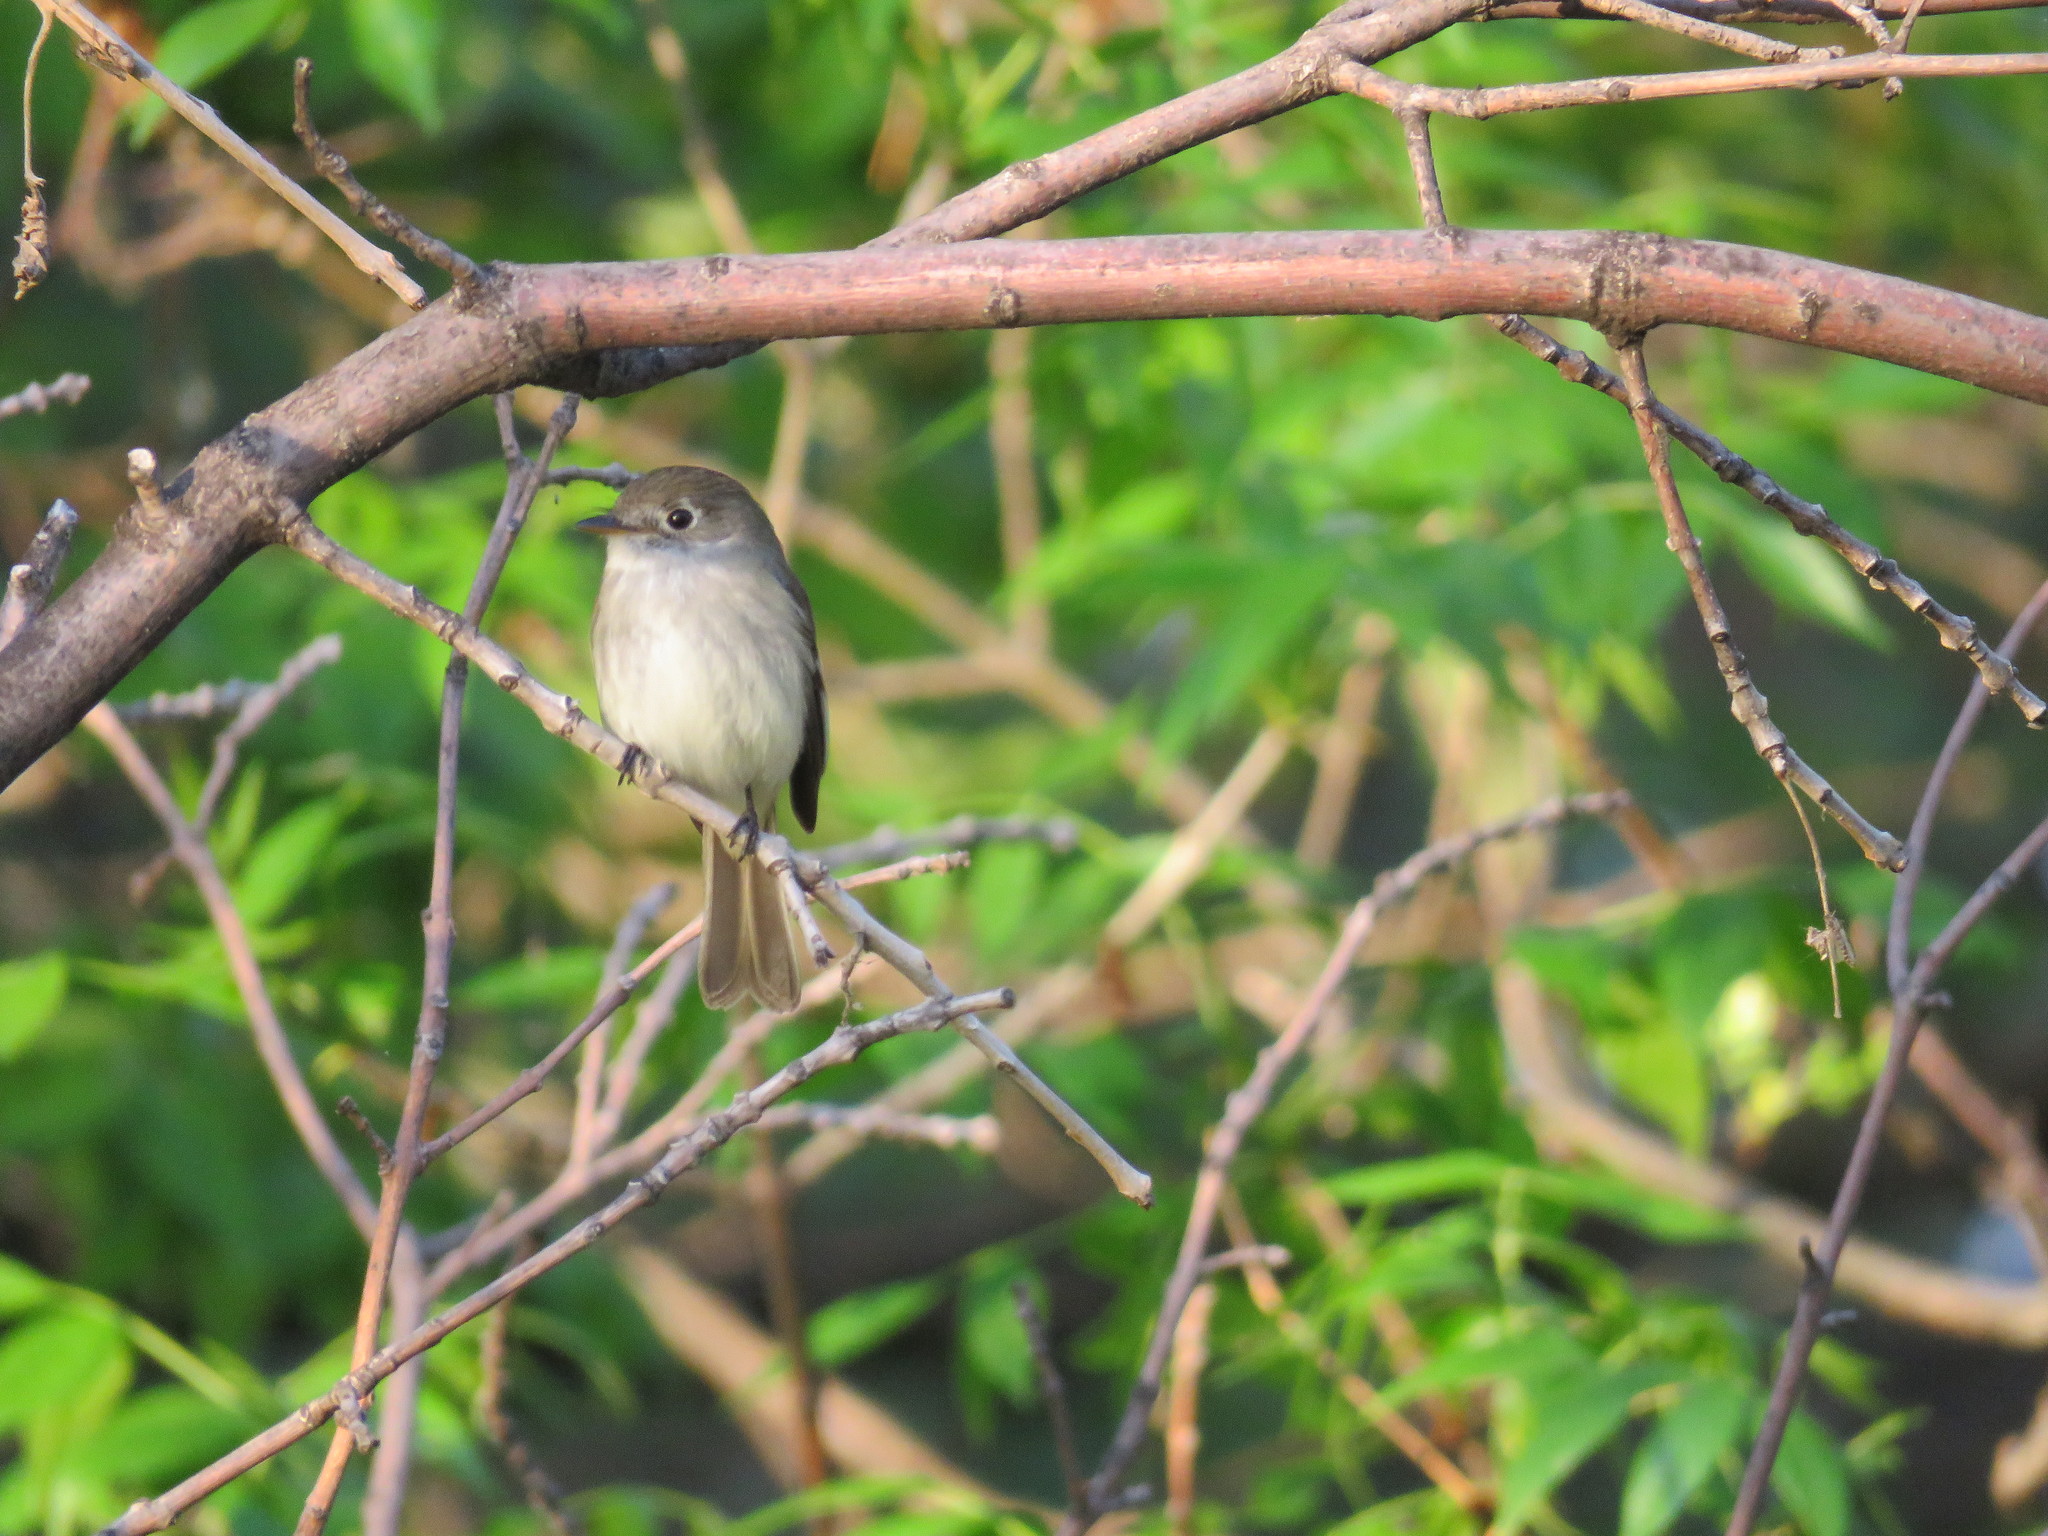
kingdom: Animalia
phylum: Chordata
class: Aves
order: Passeriformes
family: Tyrannidae
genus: Empidonax
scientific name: Empidonax minimus
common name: Least flycatcher
